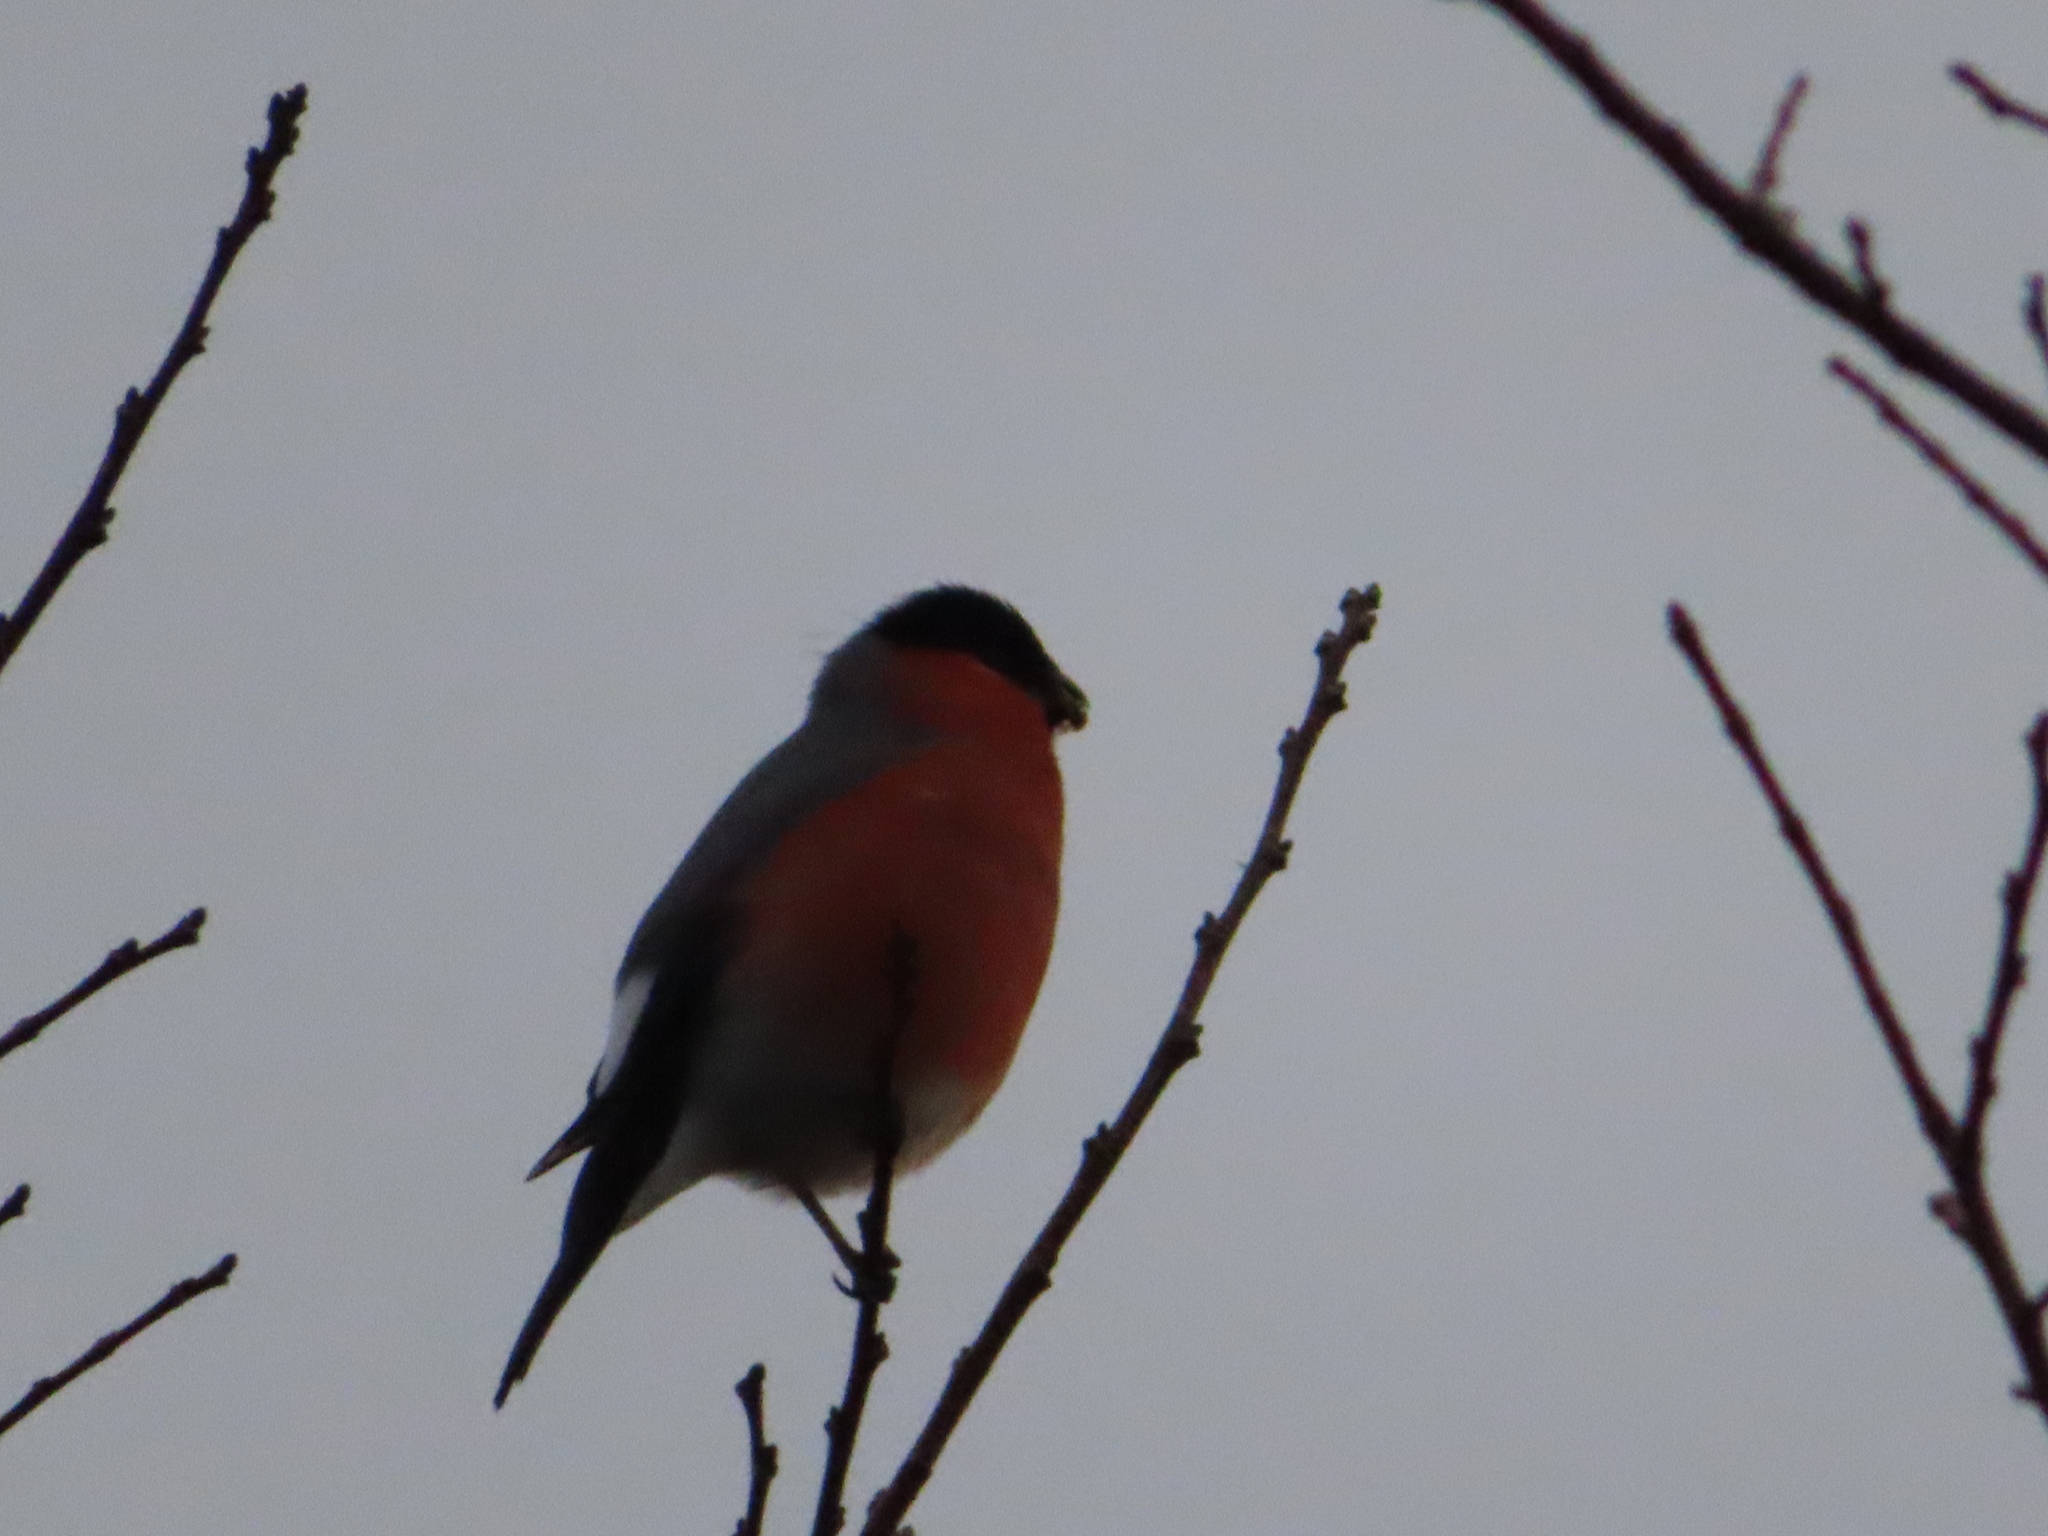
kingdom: Animalia
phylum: Chordata
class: Aves
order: Passeriformes
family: Fringillidae
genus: Pyrrhula
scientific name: Pyrrhula pyrrhula
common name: Eurasian bullfinch
